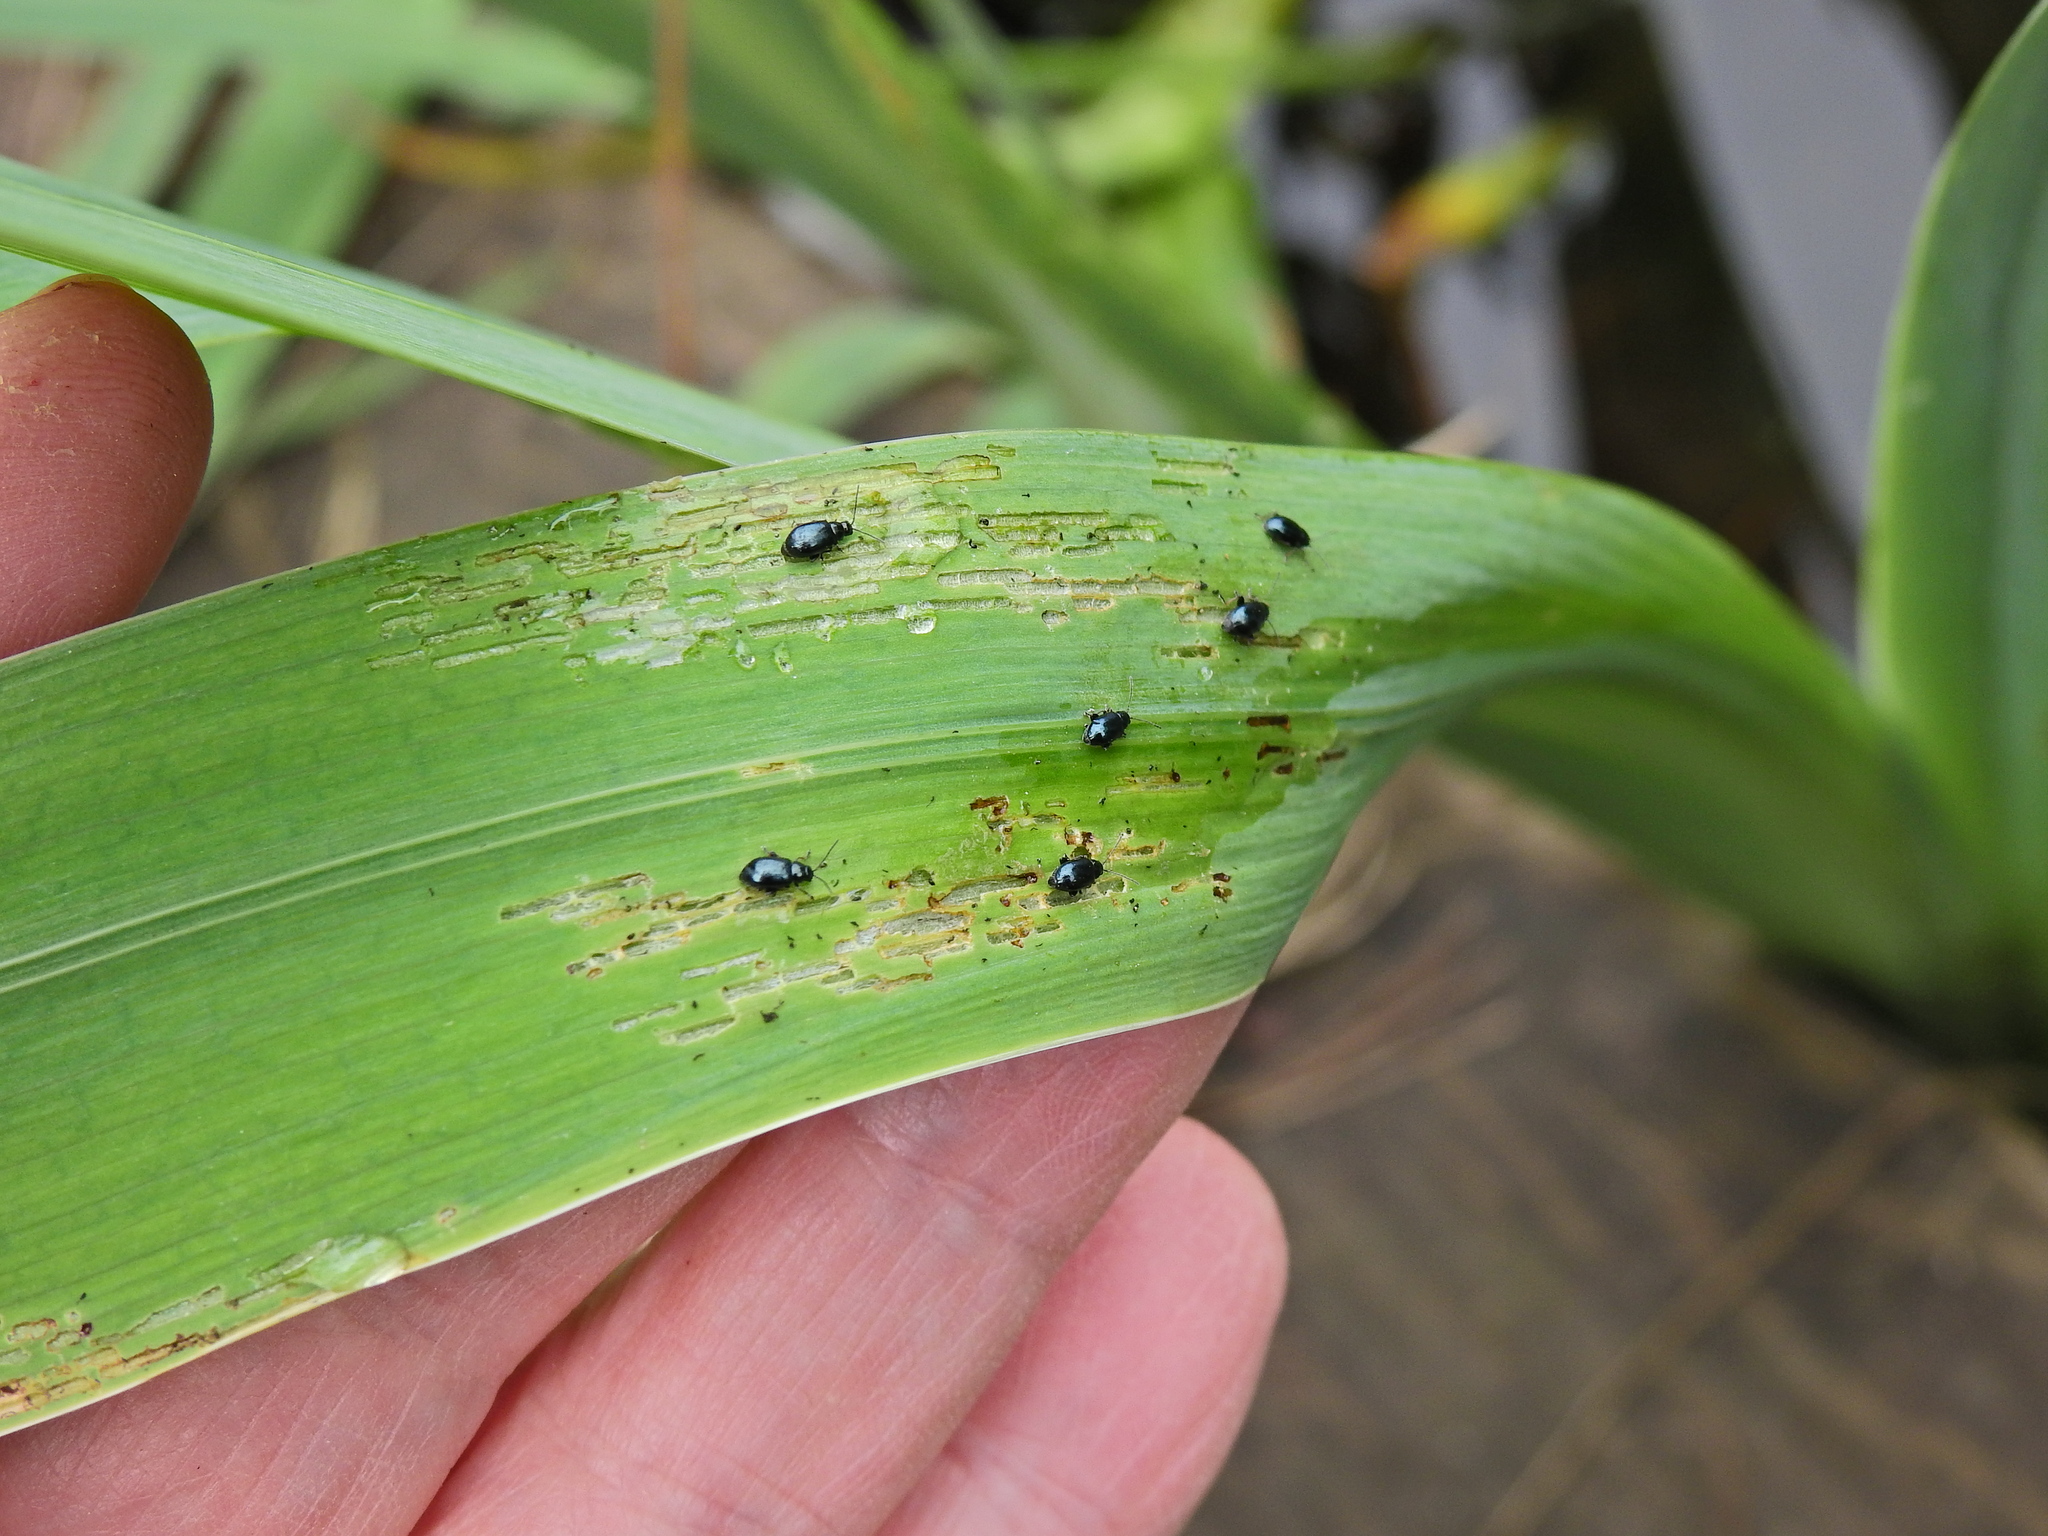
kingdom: Animalia
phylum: Arthropoda
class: Insecta
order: Coleoptera
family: Chrysomelidae
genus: Aphthona
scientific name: Aphthona nonstriata
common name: Iris flea beetle
